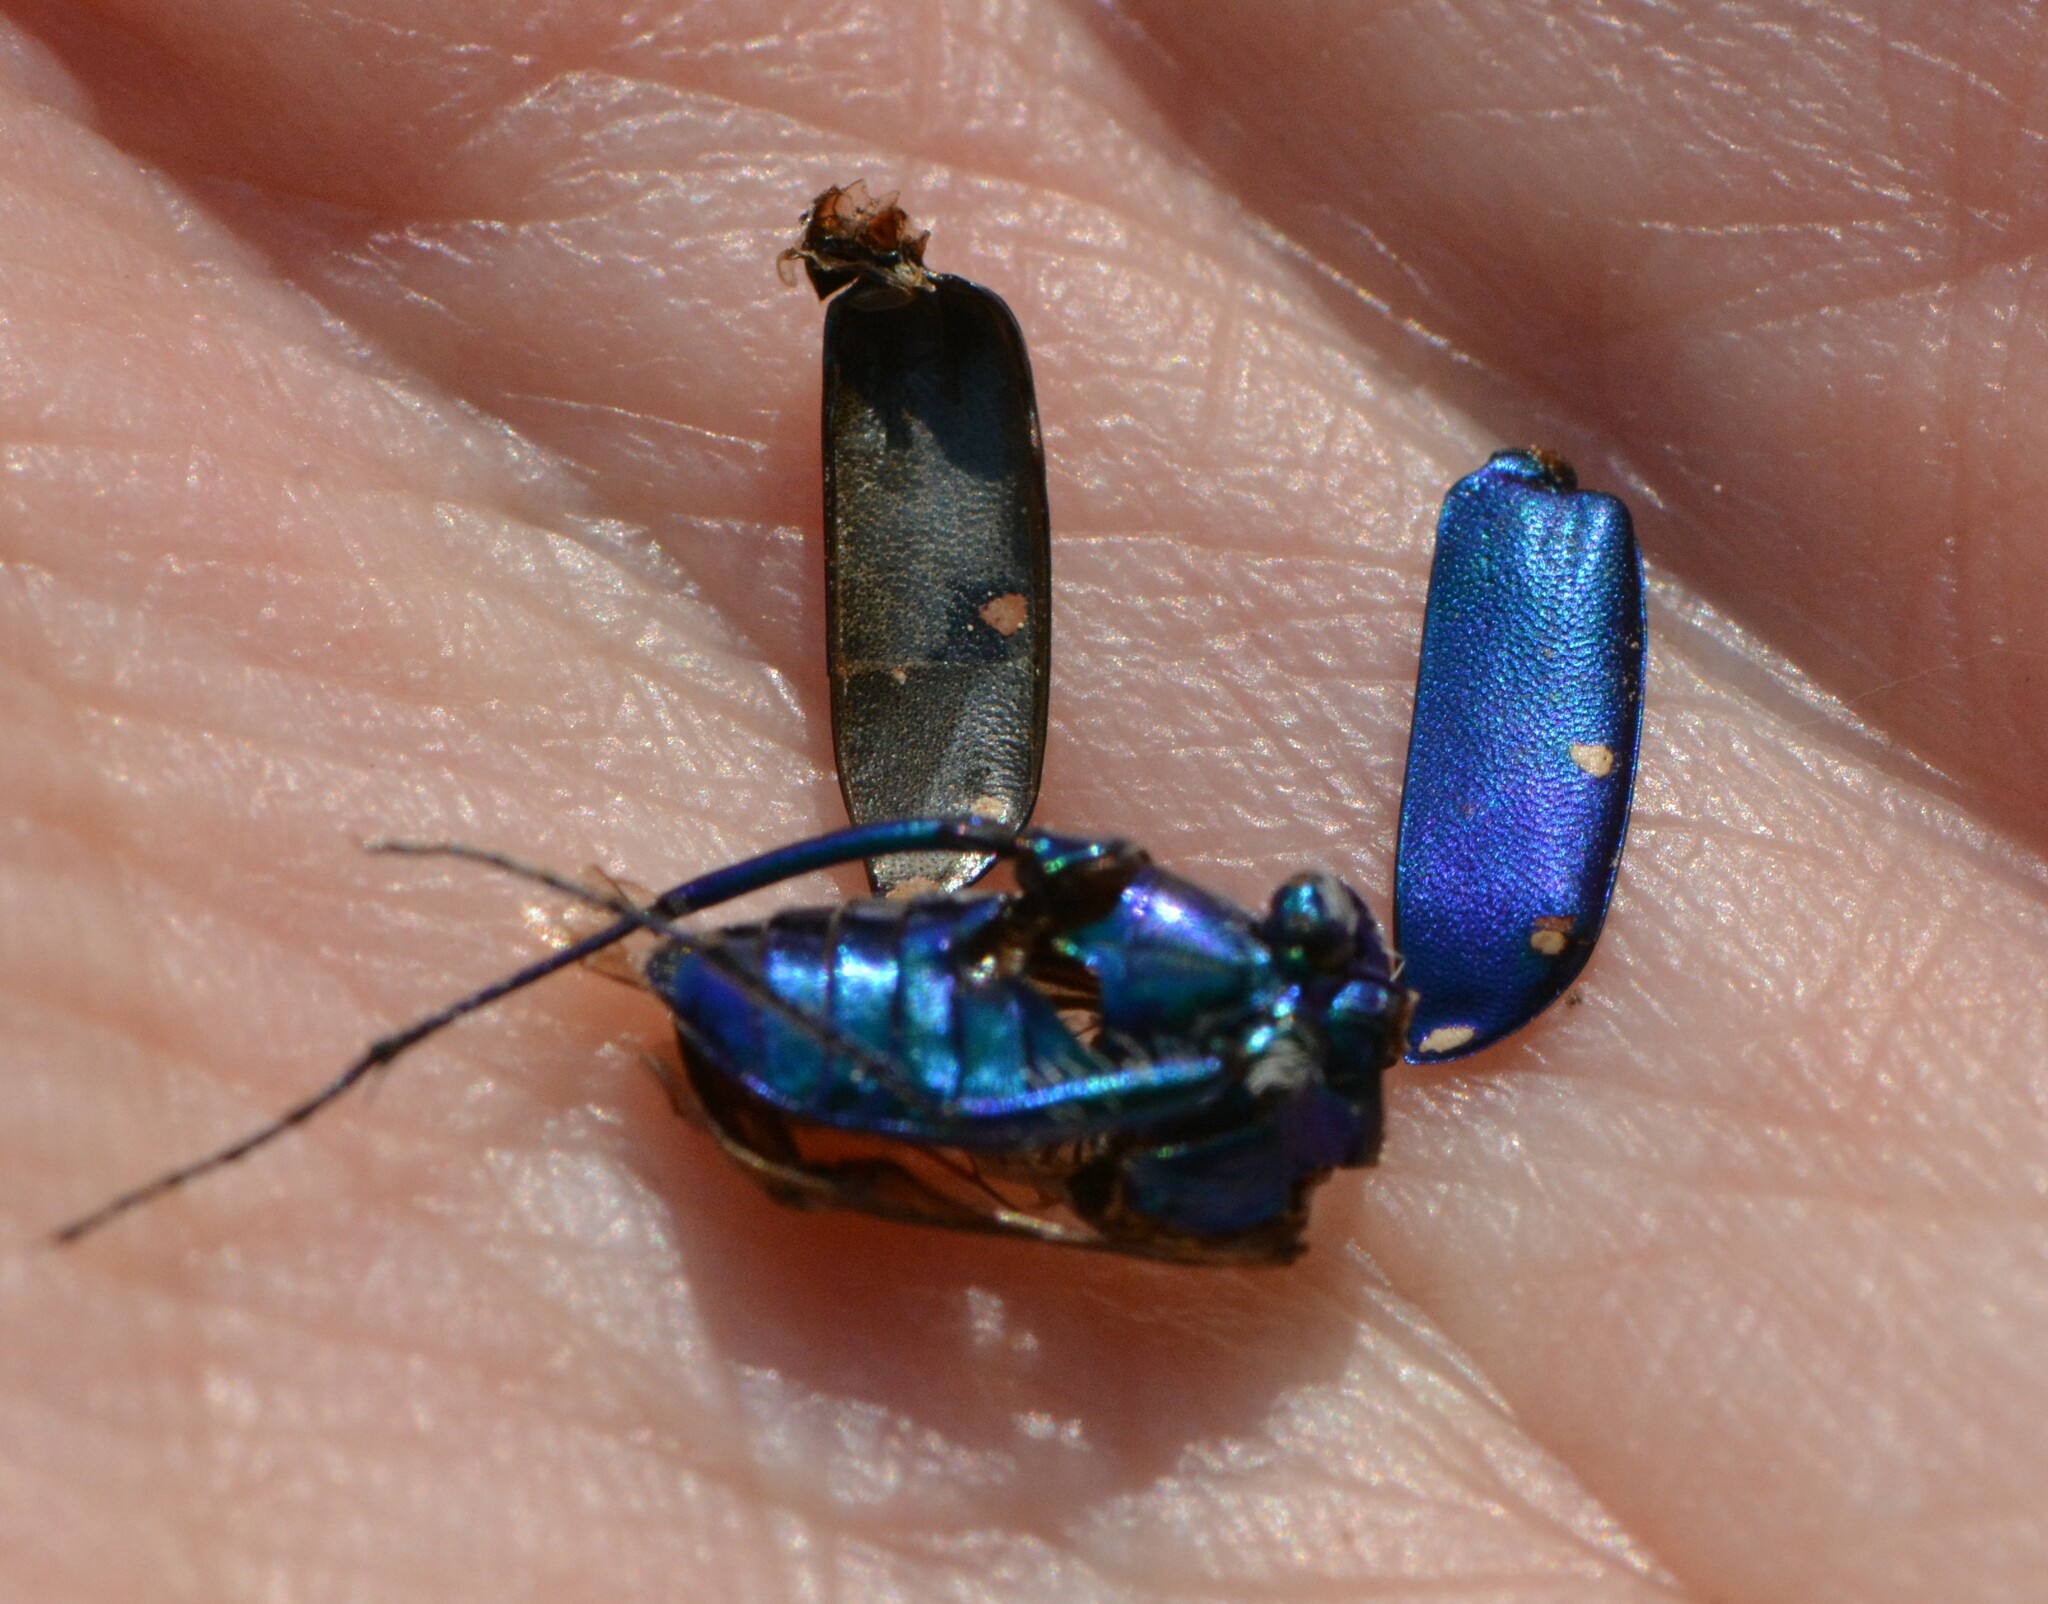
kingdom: Animalia
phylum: Arthropoda
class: Insecta
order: Coleoptera
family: Carabidae
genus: Cicindela
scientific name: Cicindela sexguttata
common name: Six-spotted tiger beetle
